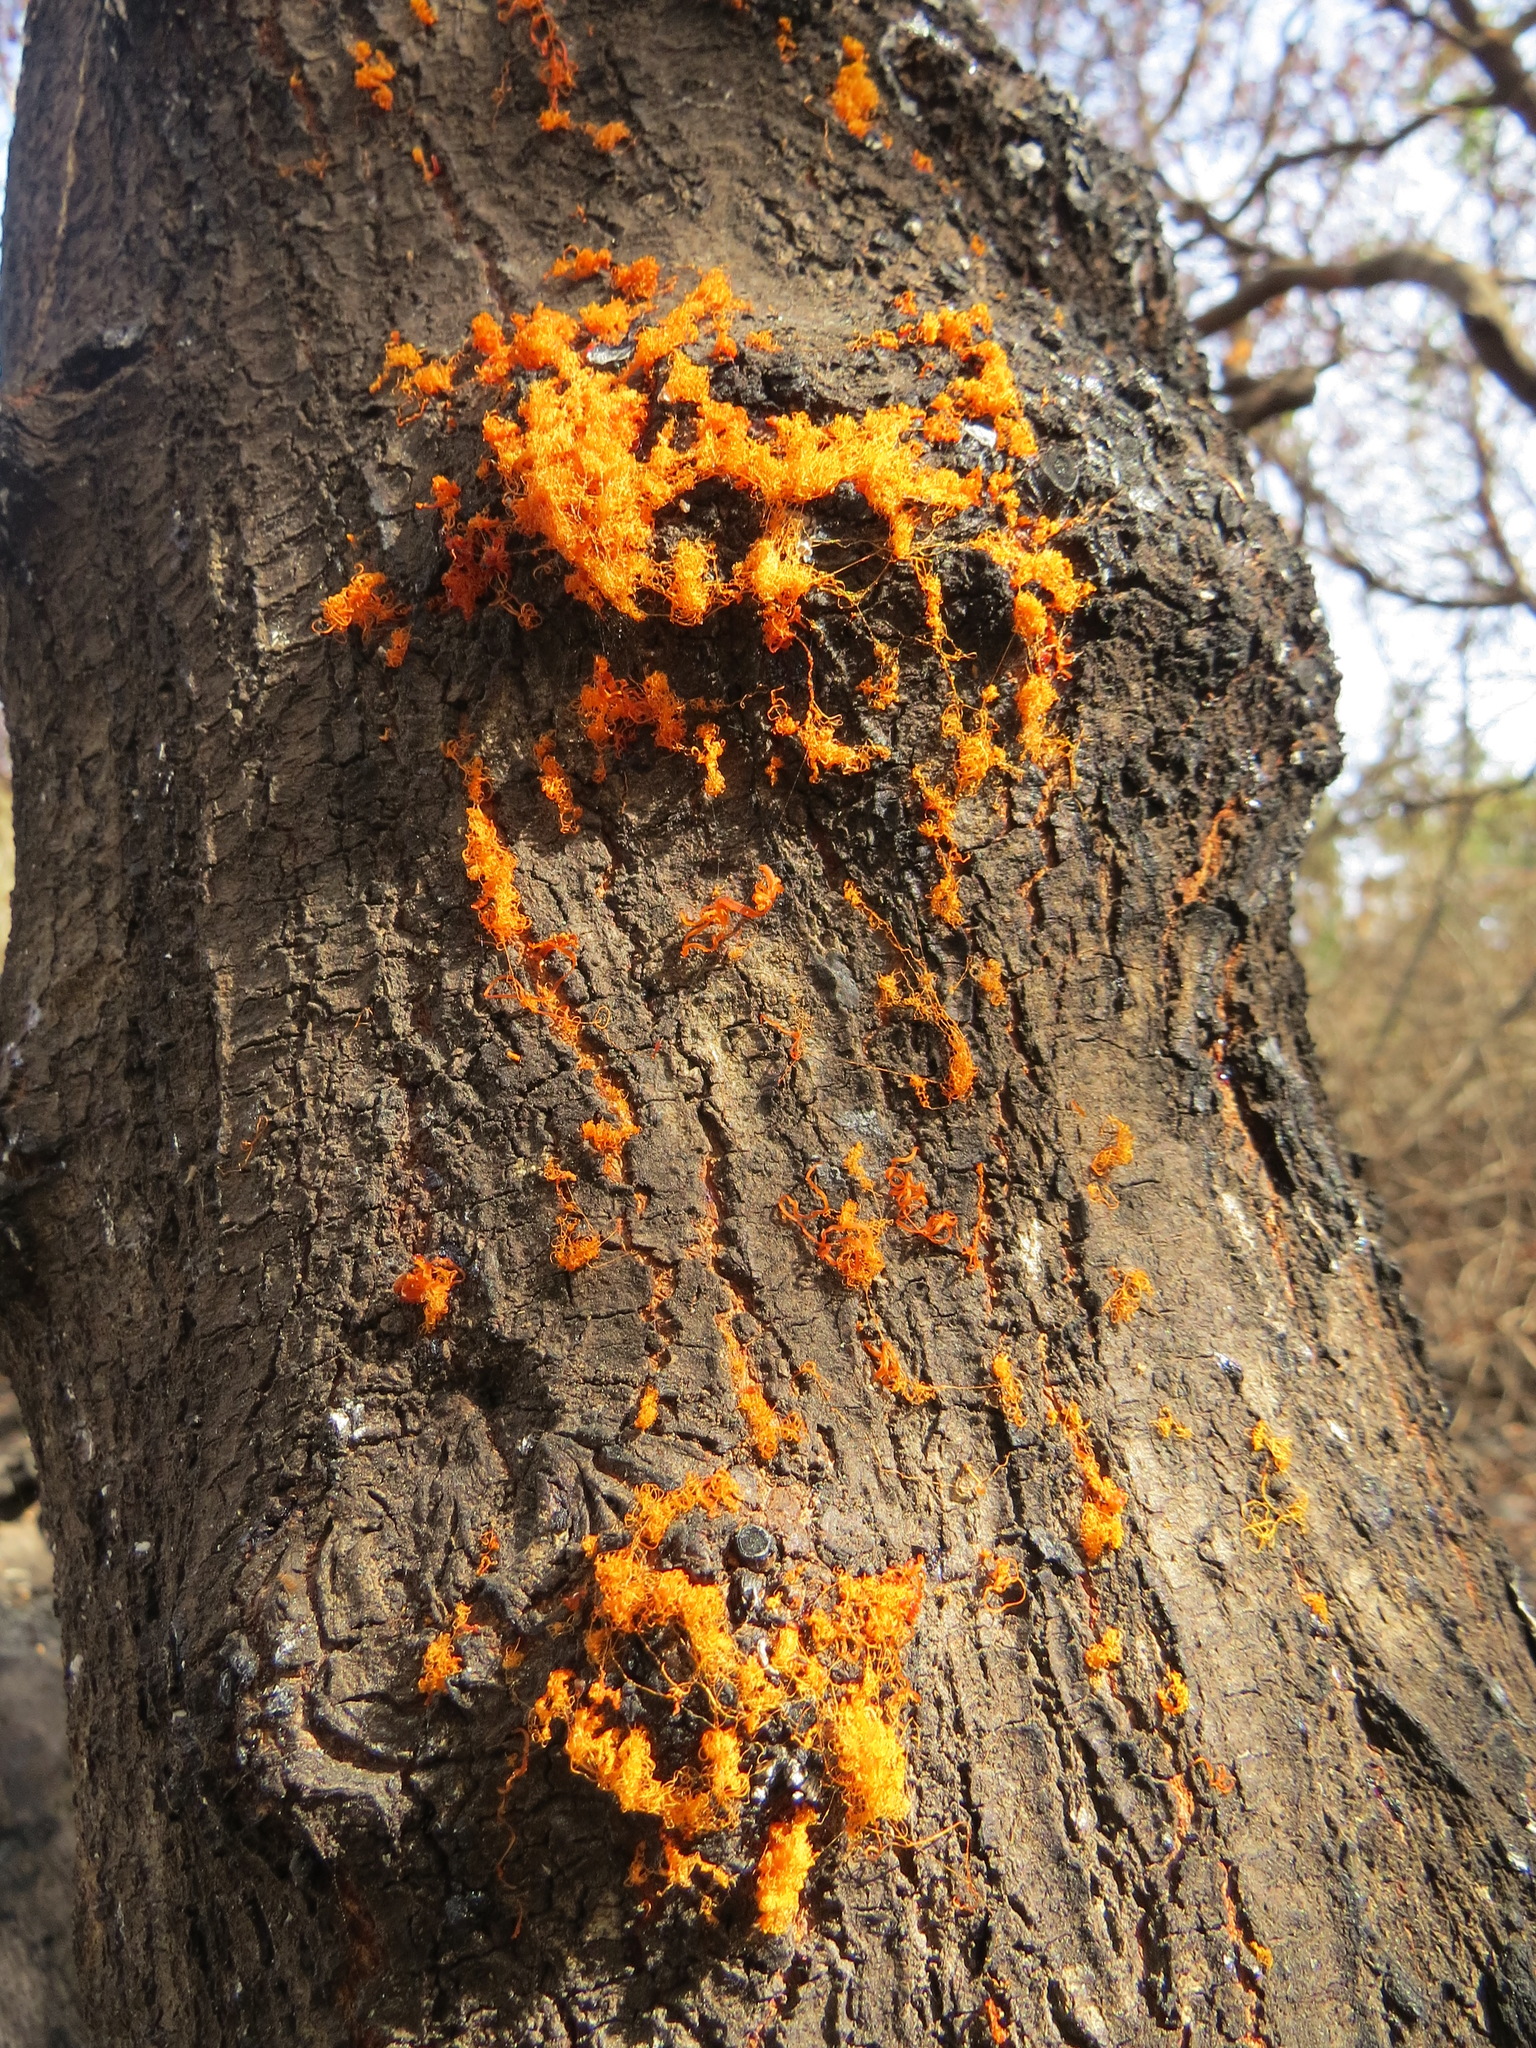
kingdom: Plantae
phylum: Chlorophyta
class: Ulvophyceae
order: Trentepohliales
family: Trentepohliaceae
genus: Trentepohlia
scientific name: Trentepohlia aurea
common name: Orange rock hair
